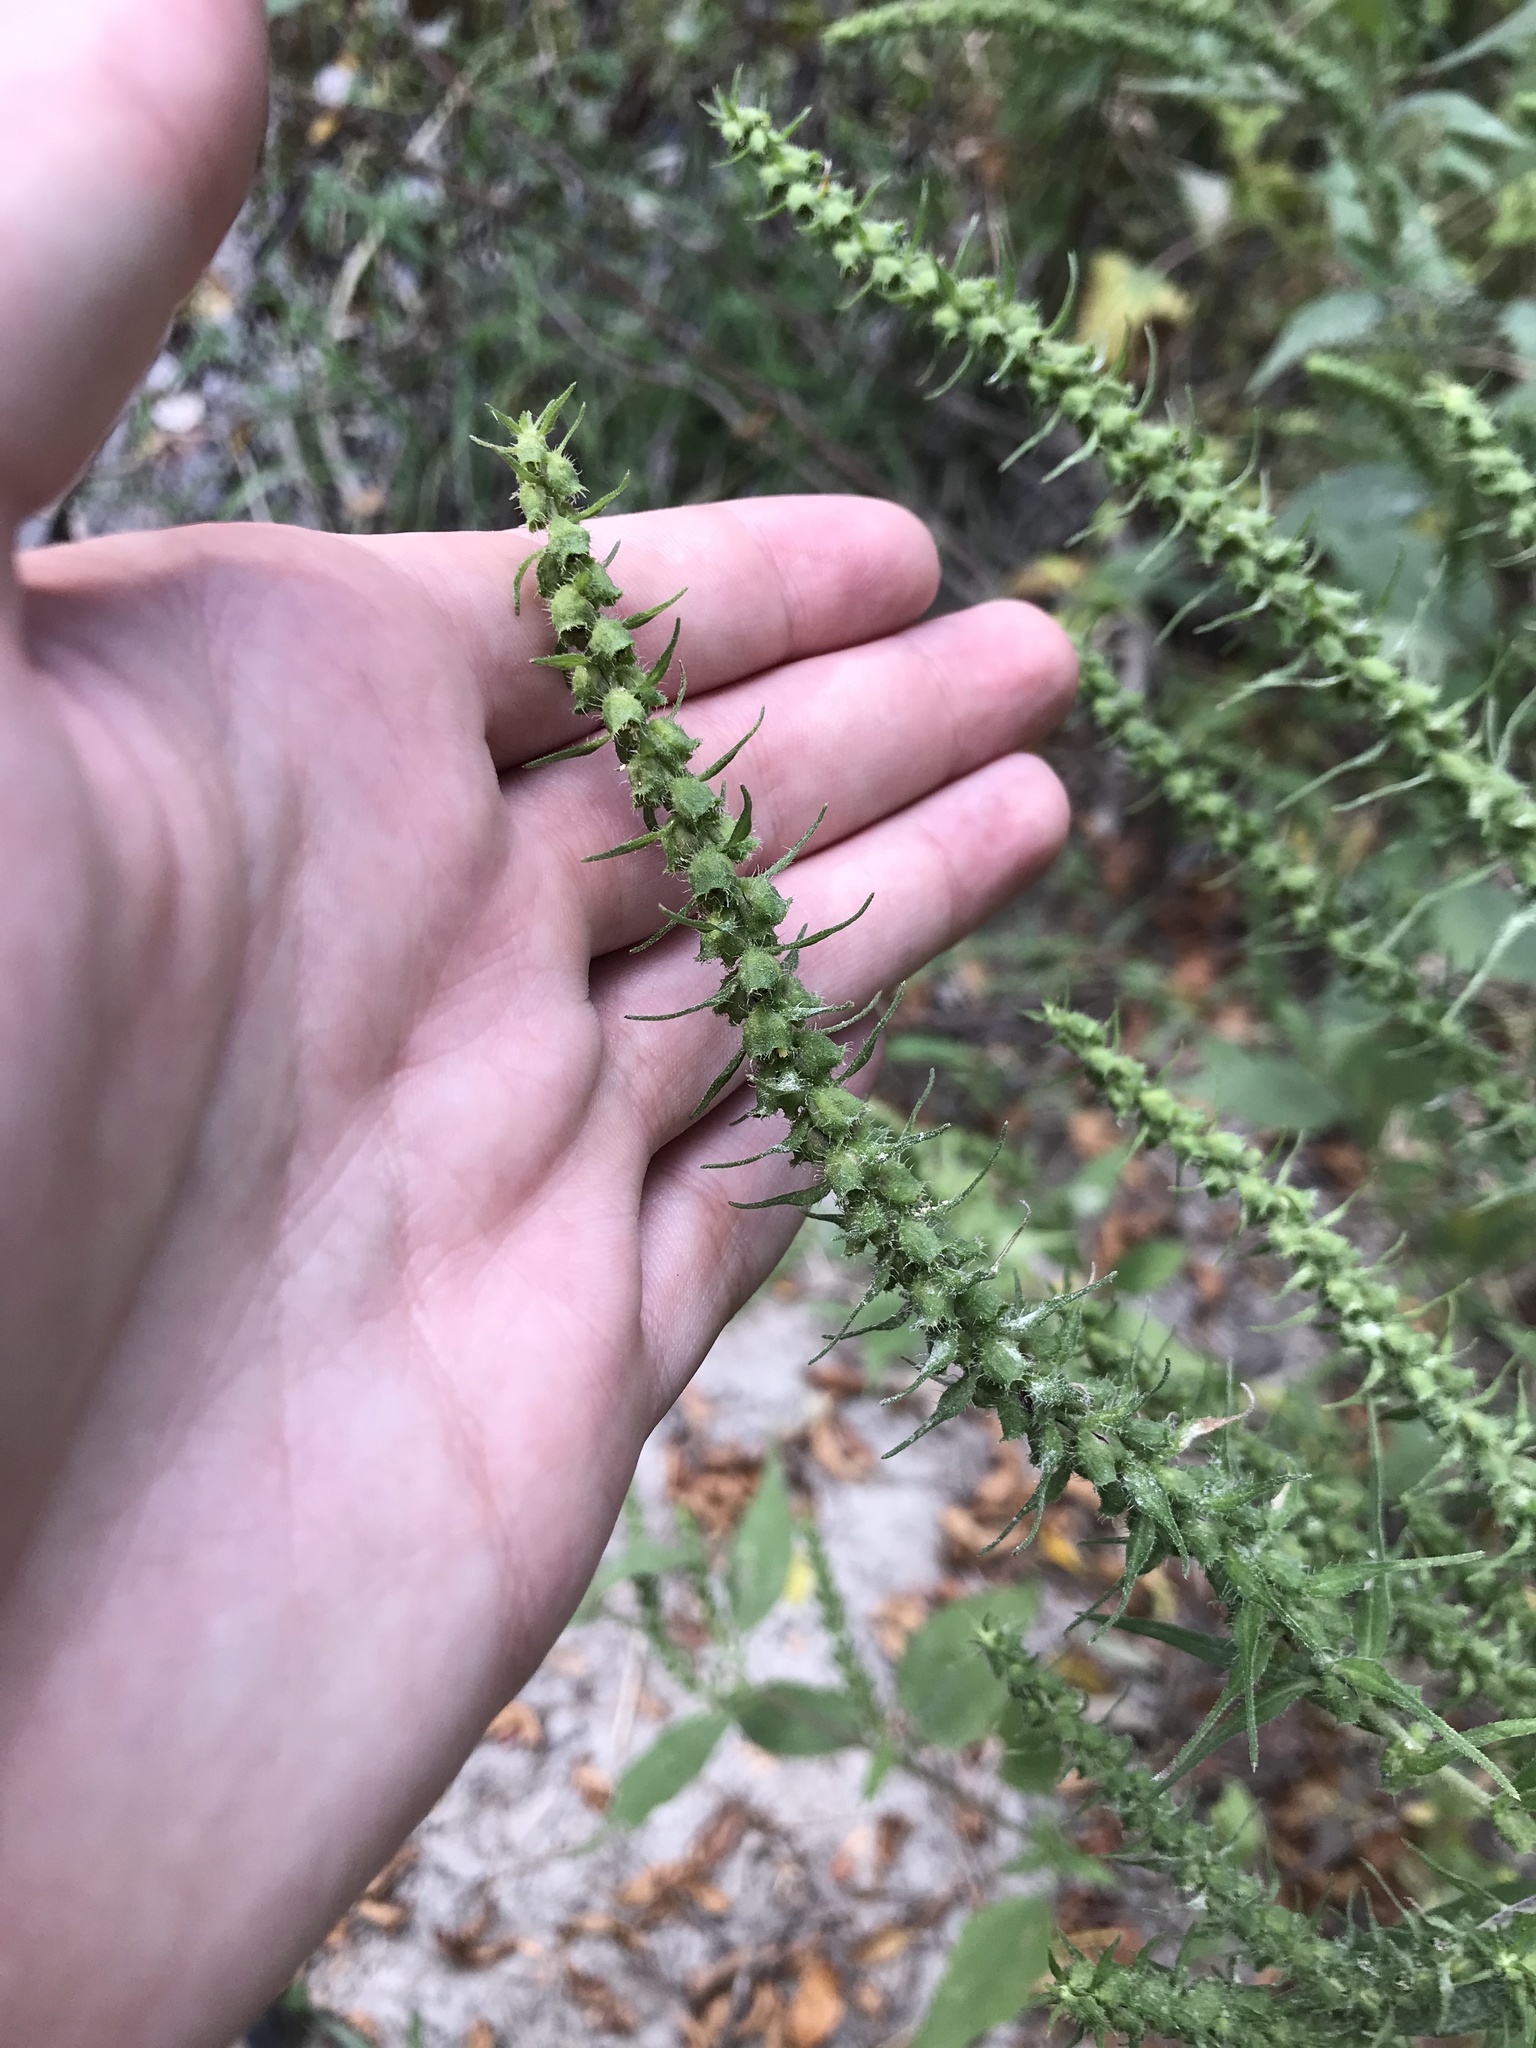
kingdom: Plantae
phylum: Tracheophyta
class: Magnoliopsida
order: Asterales
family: Asteraceae
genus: Iva
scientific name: Iva annua
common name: Marsh-elder
